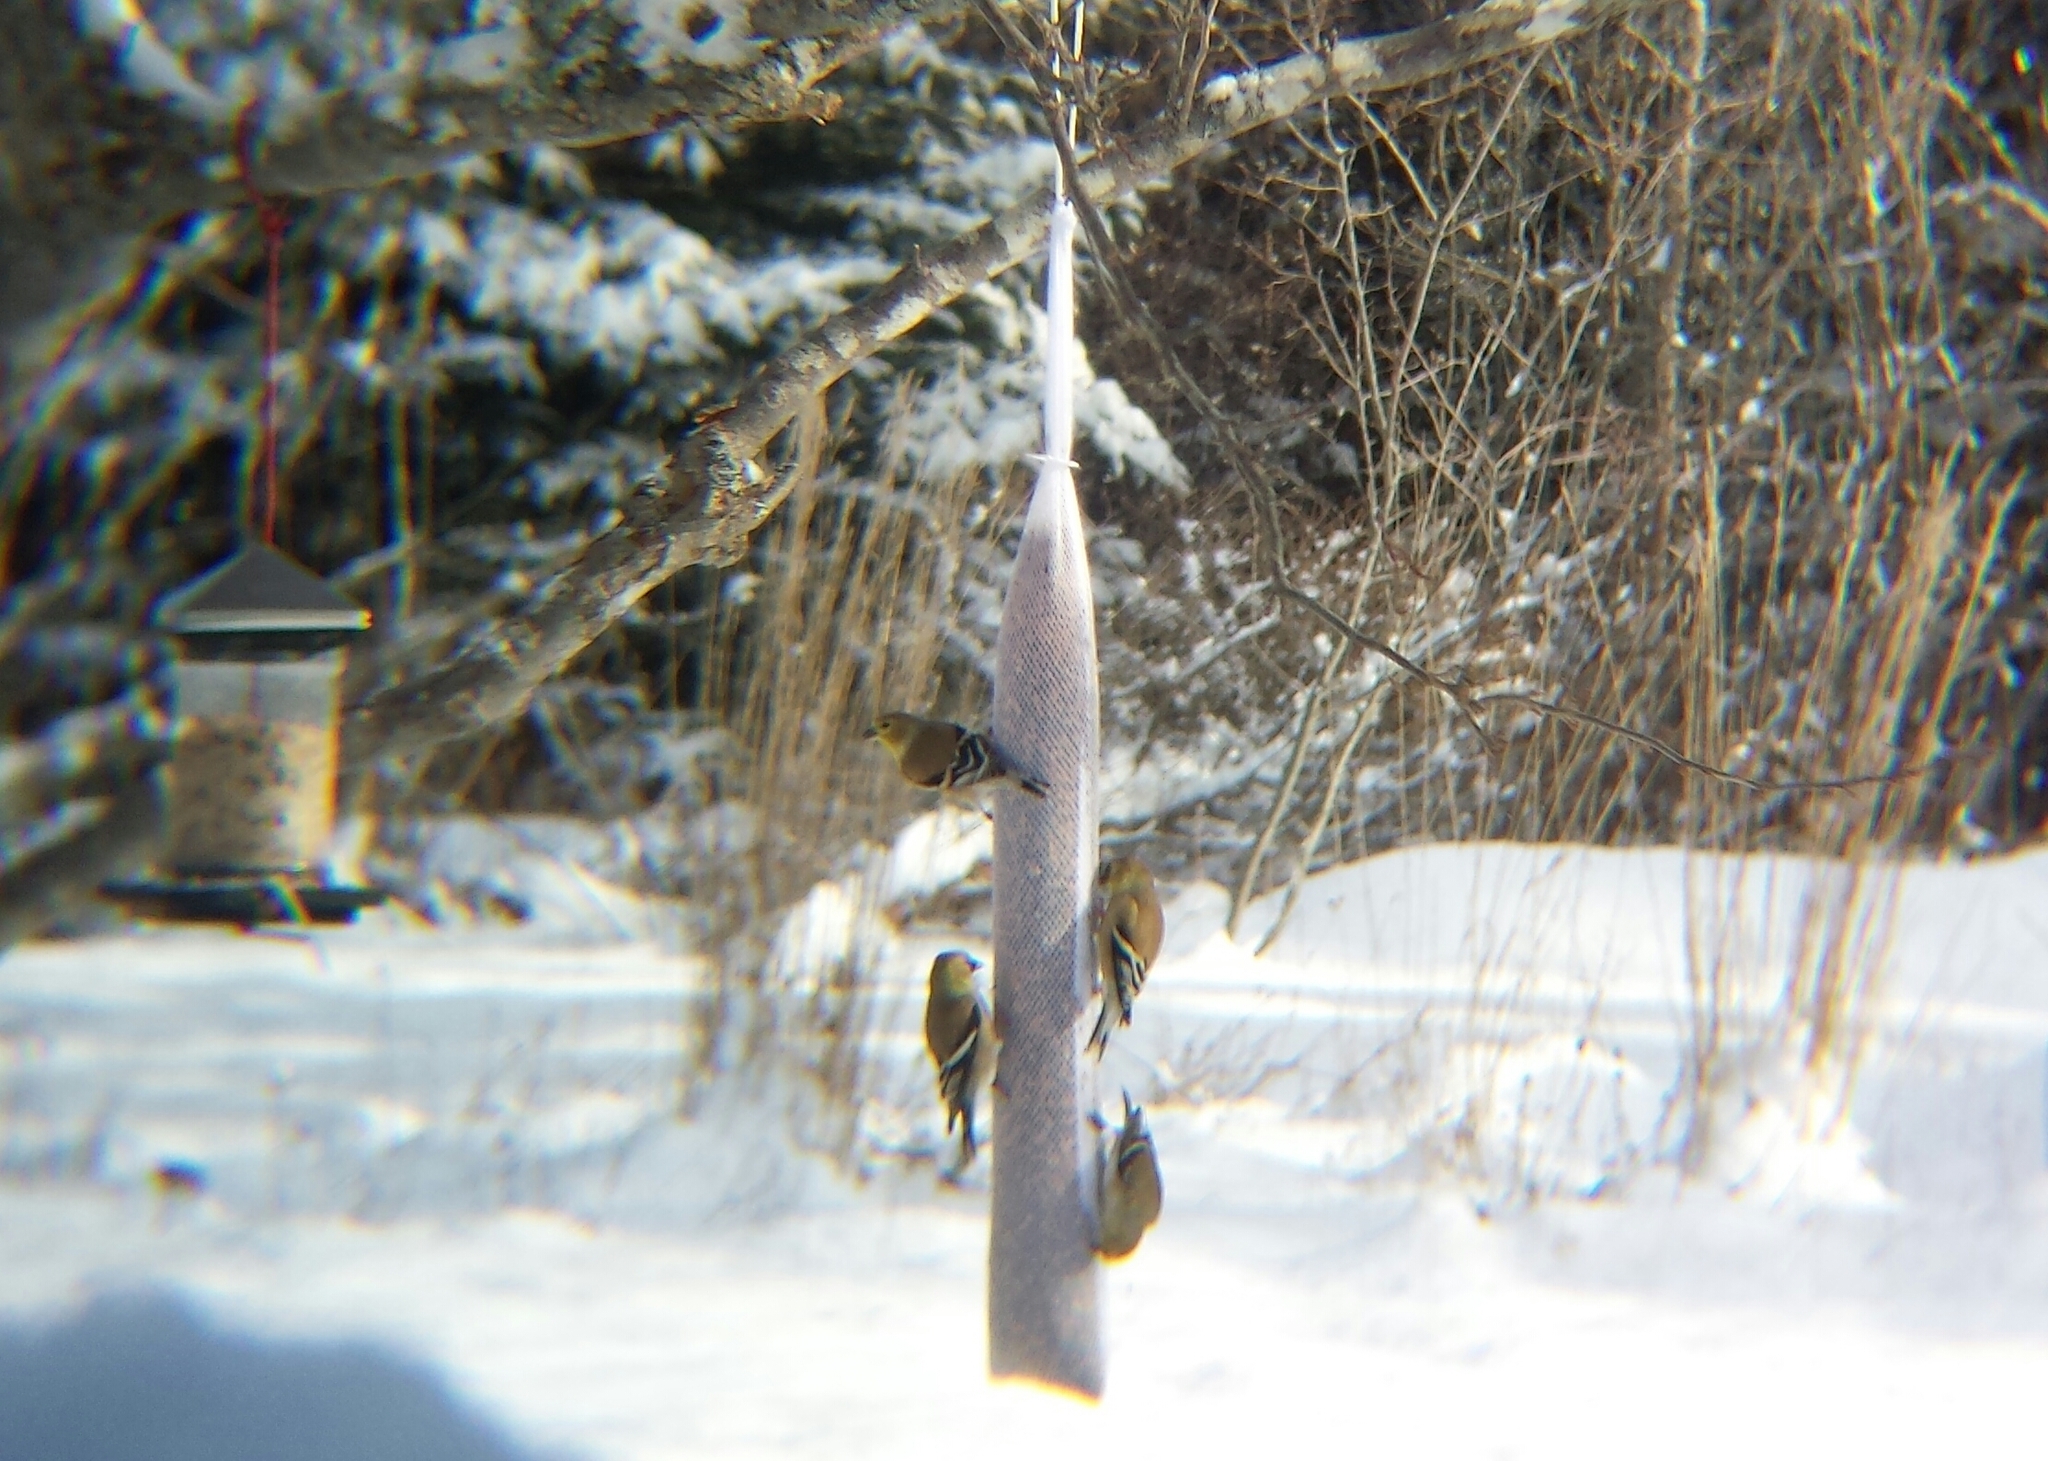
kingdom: Animalia
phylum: Chordata
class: Aves
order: Passeriformes
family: Fringillidae
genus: Spinus
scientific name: Spinus tristis
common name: American goldfinch
